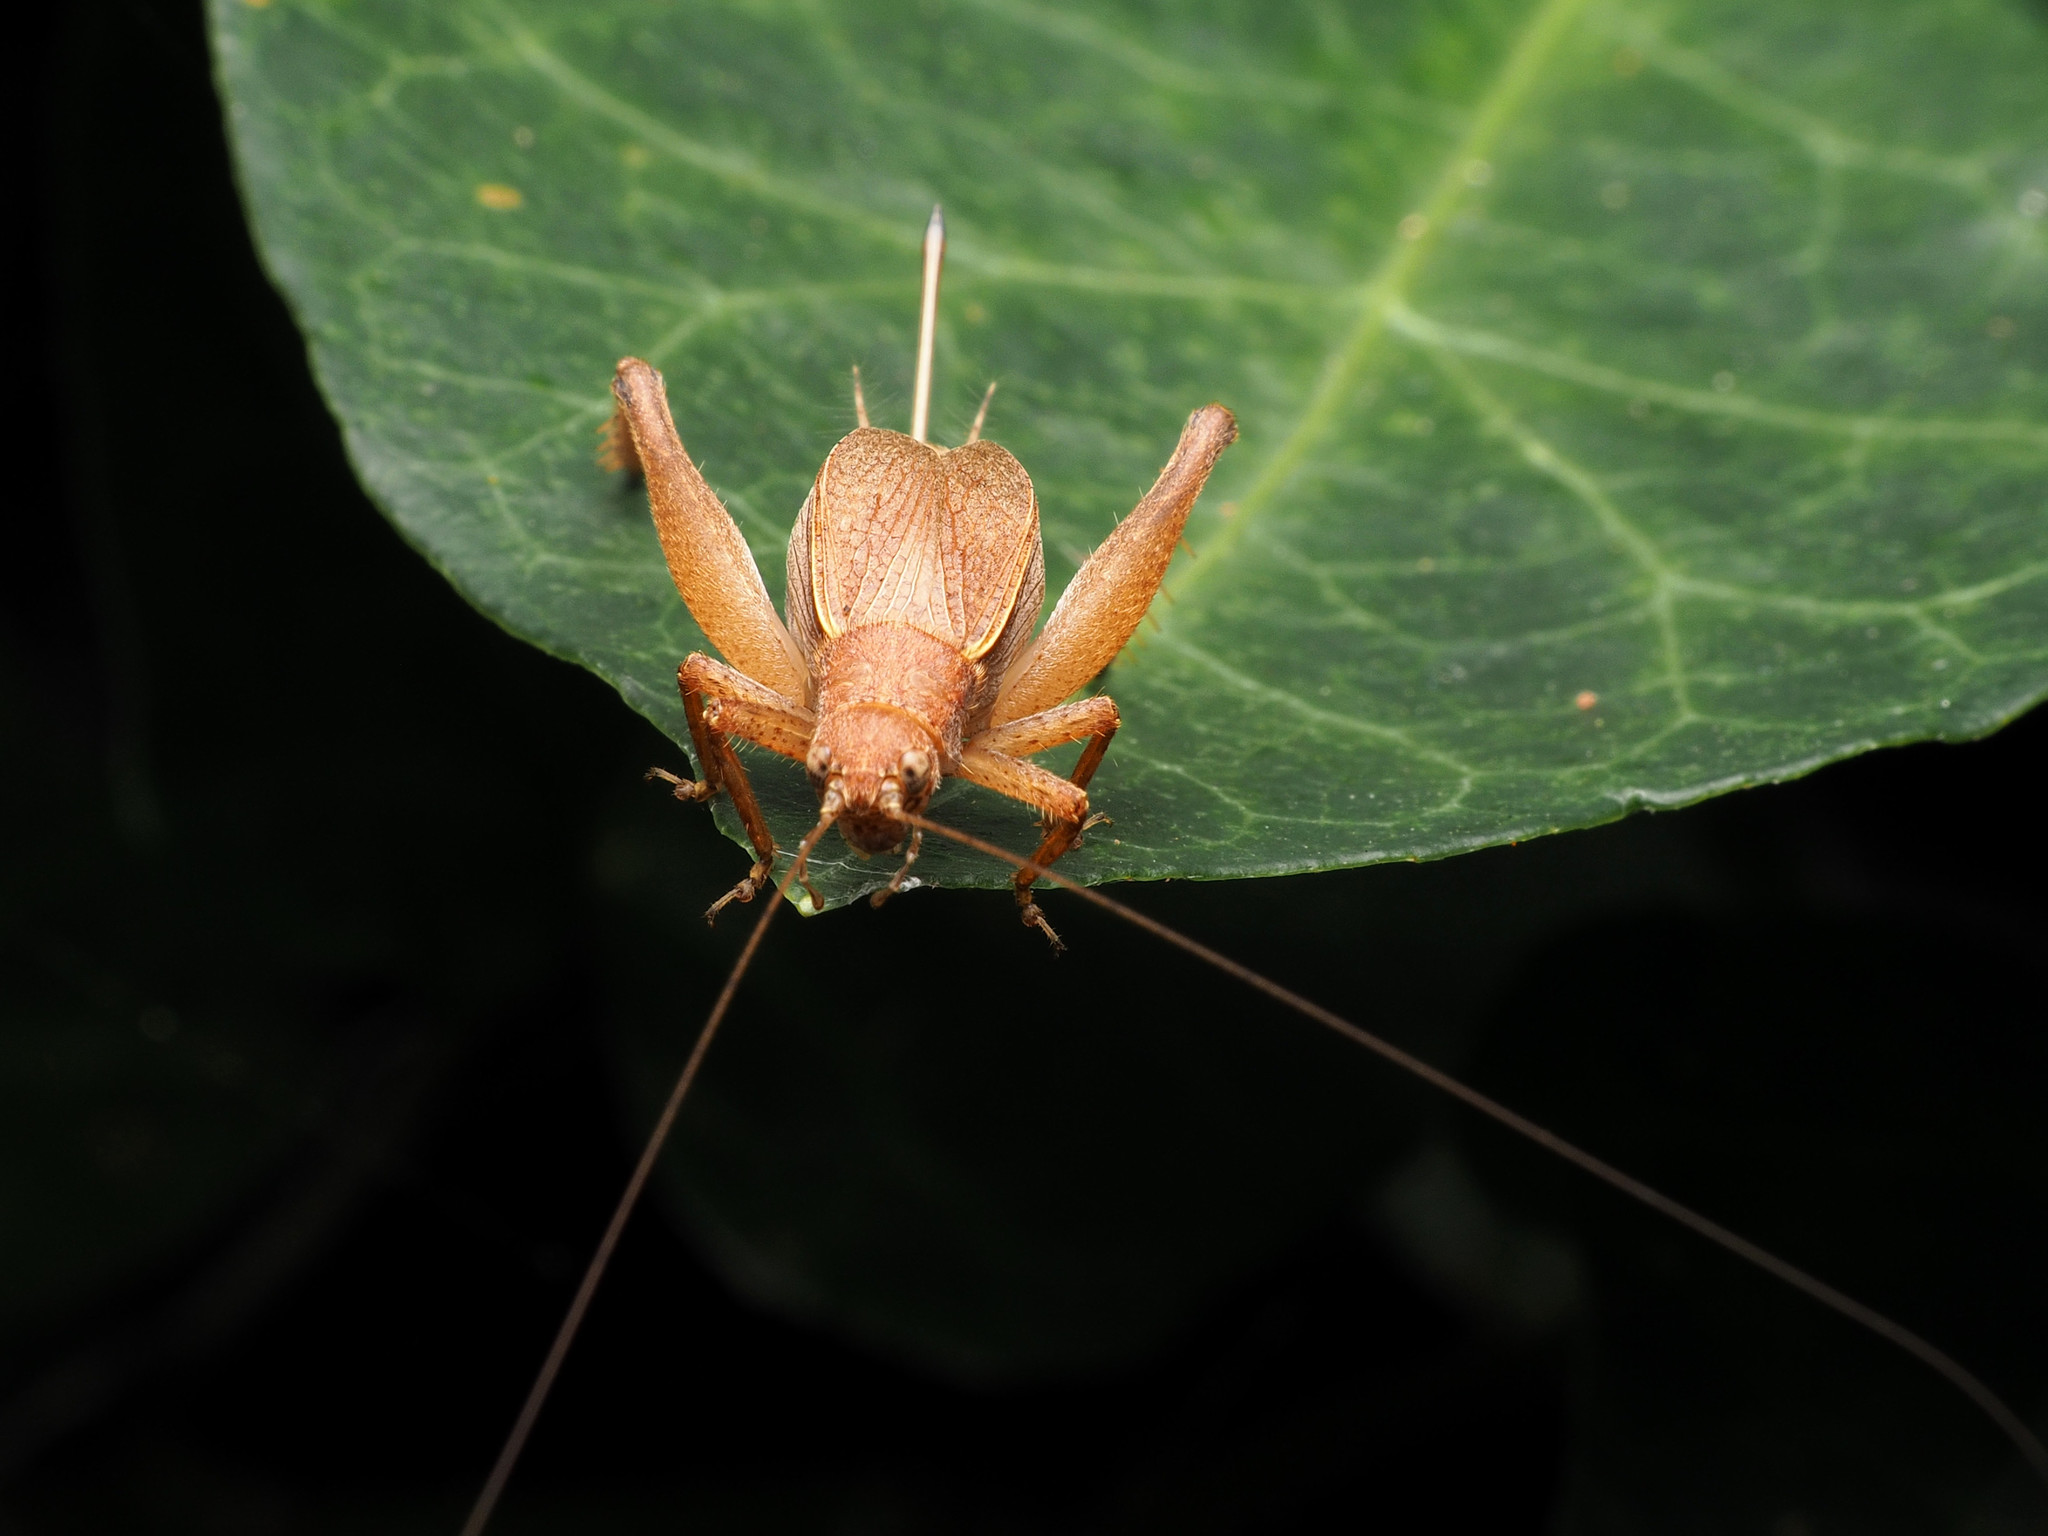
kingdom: Animalia
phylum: Arthropoda
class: Insecta
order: Orthoptera
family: Gryllidae
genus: Hapithus
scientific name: Hapithus agitator
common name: Restless bush cricket
